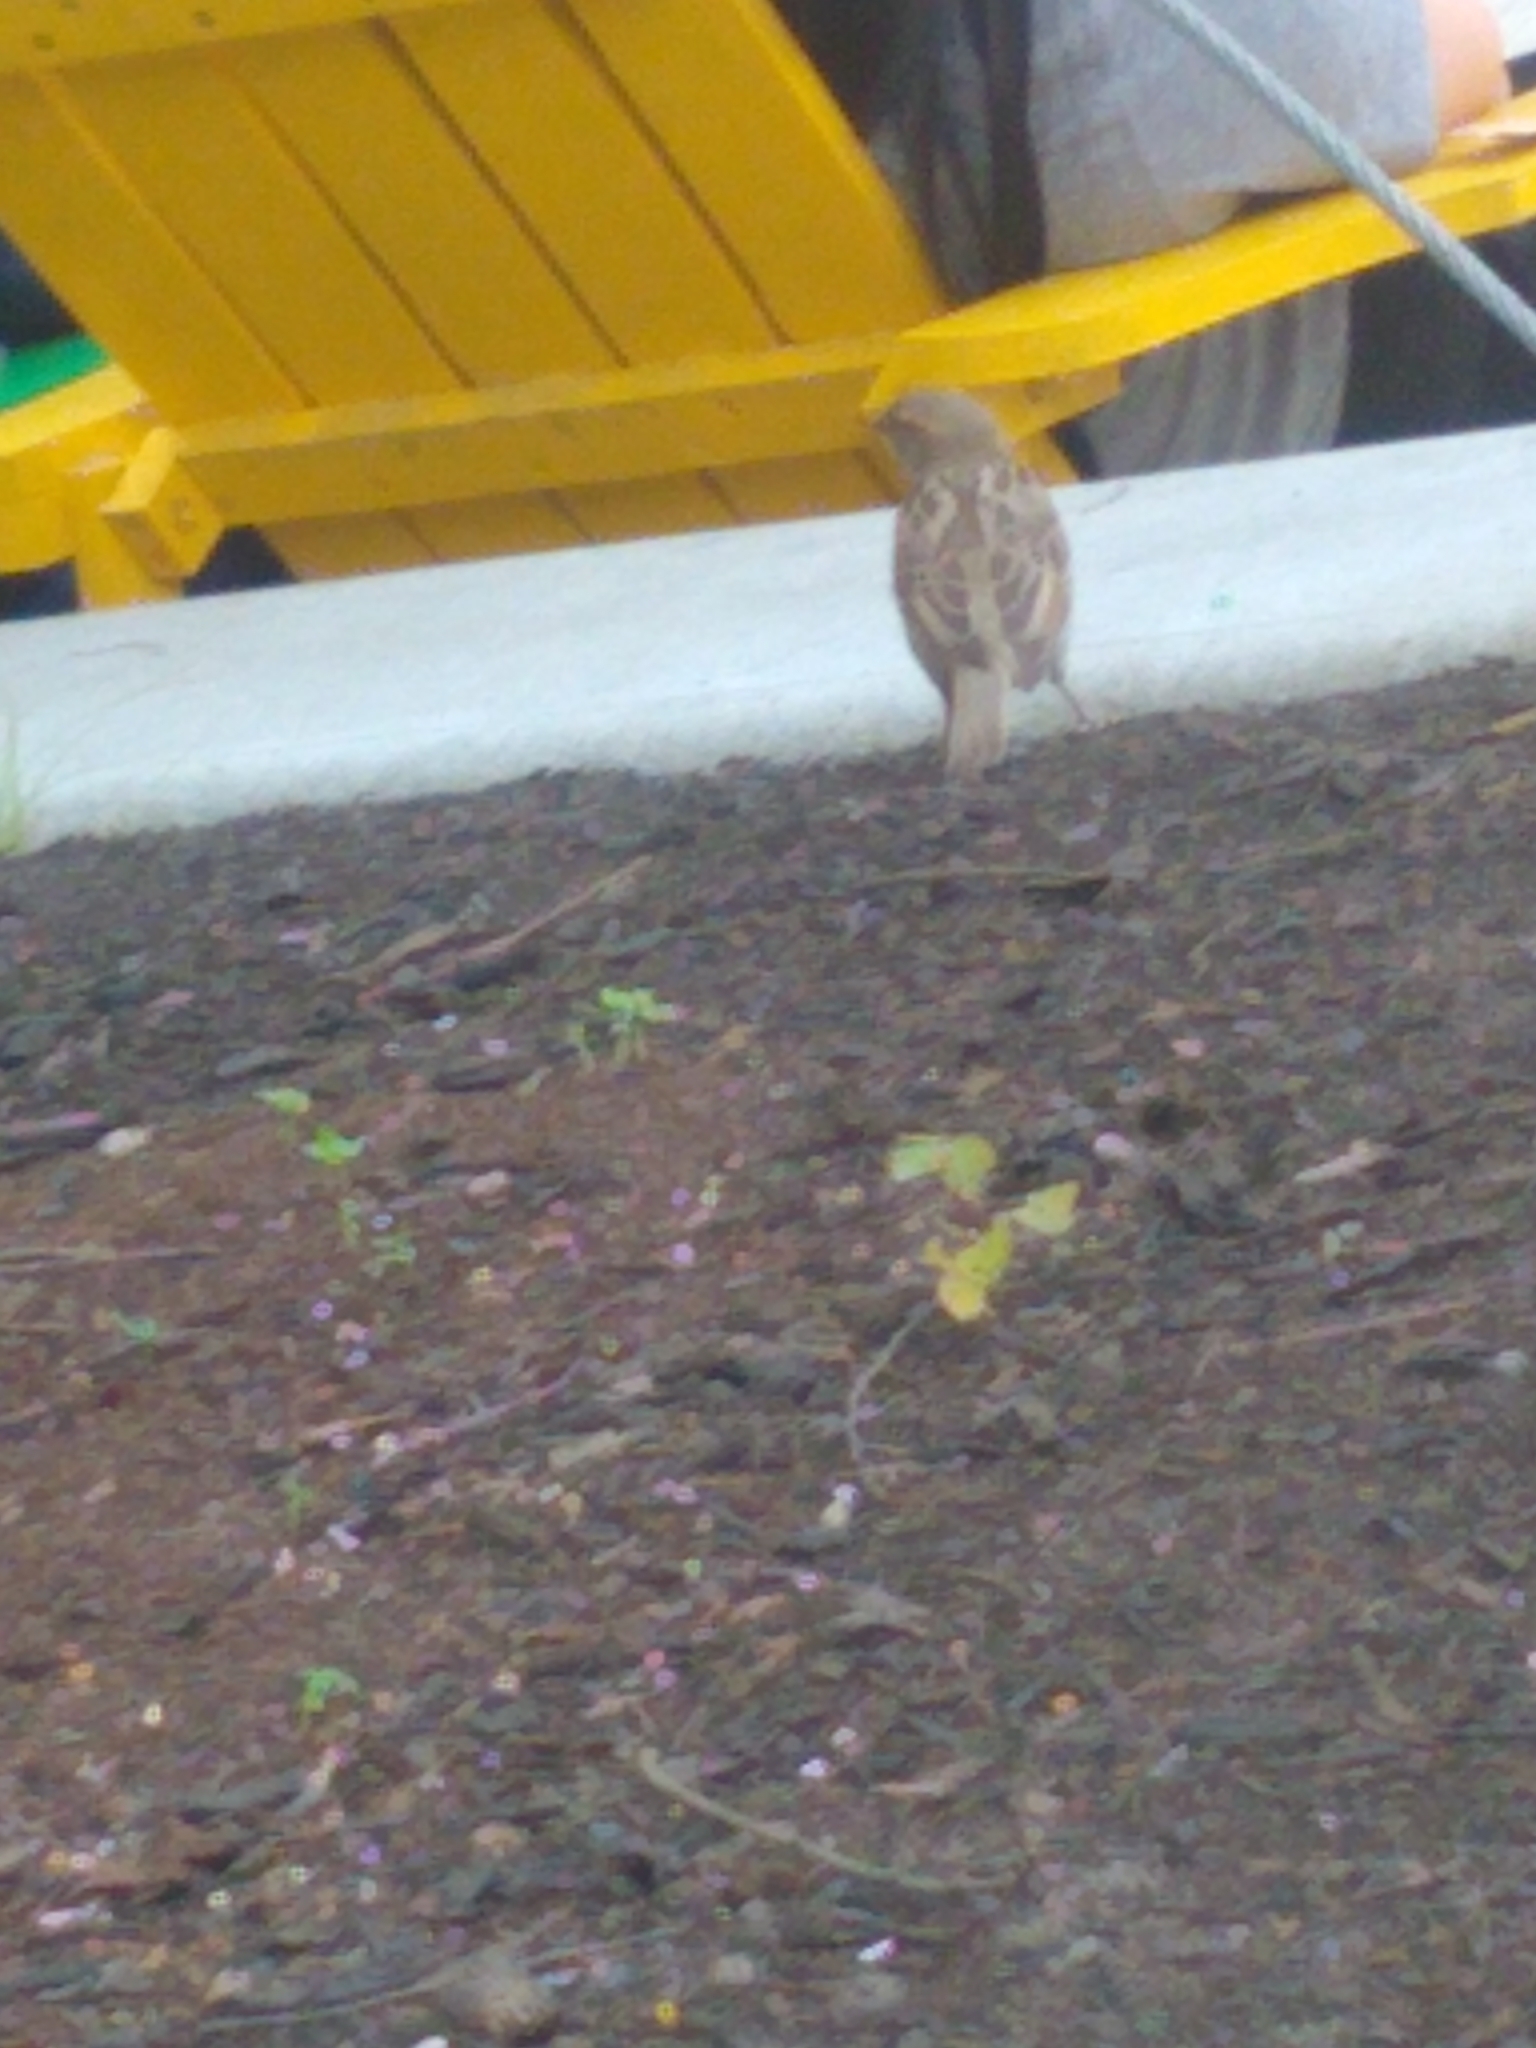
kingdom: Animalia
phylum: Chordata
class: Aves
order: Passeriformes
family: Passeridae
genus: Passer
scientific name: Passer domesticus
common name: House sparrow
